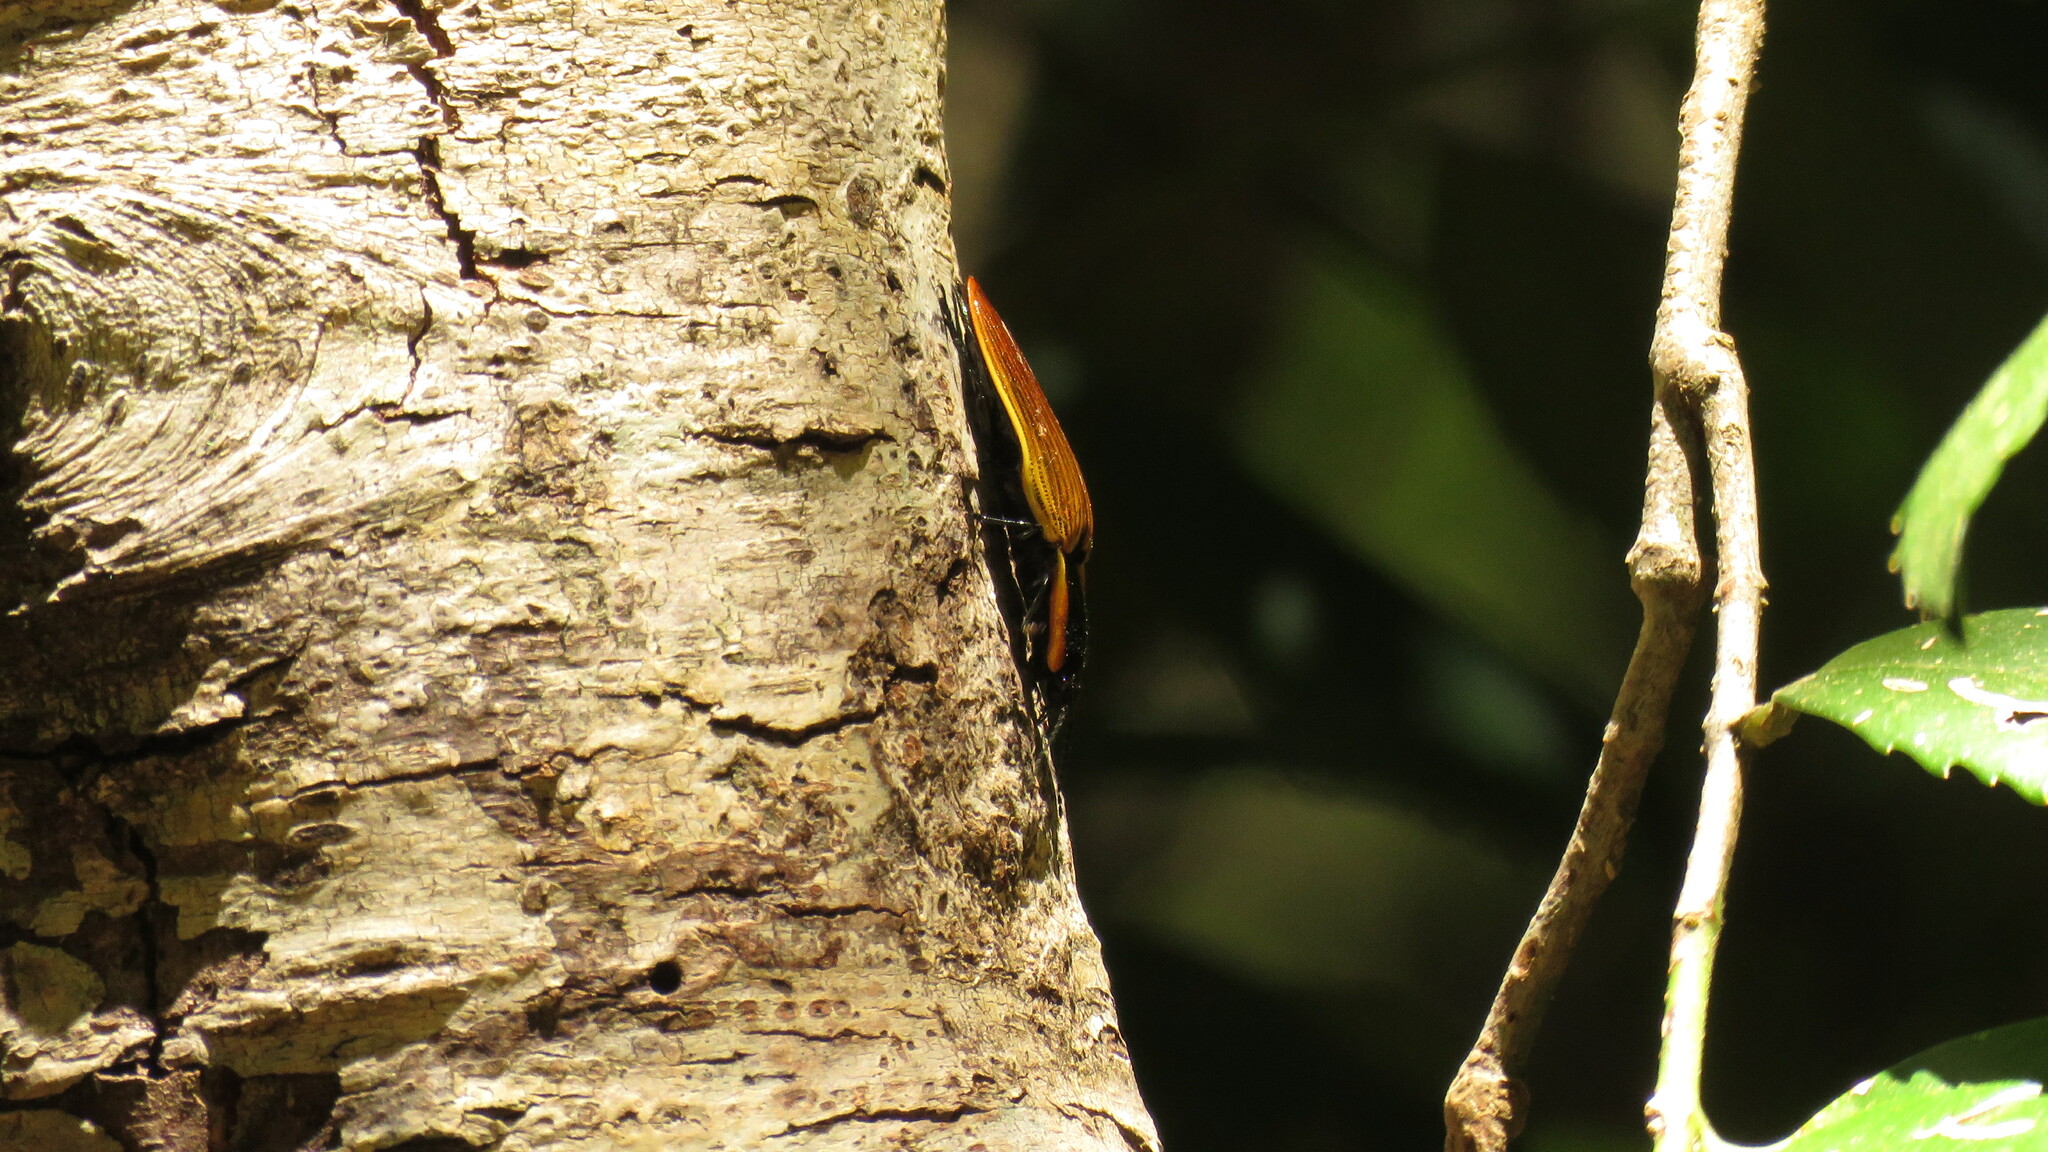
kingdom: Animalia
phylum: Arthropoda
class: Insecta
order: Coleoptera
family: Elateridae
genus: Semiotus
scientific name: Semiotus
